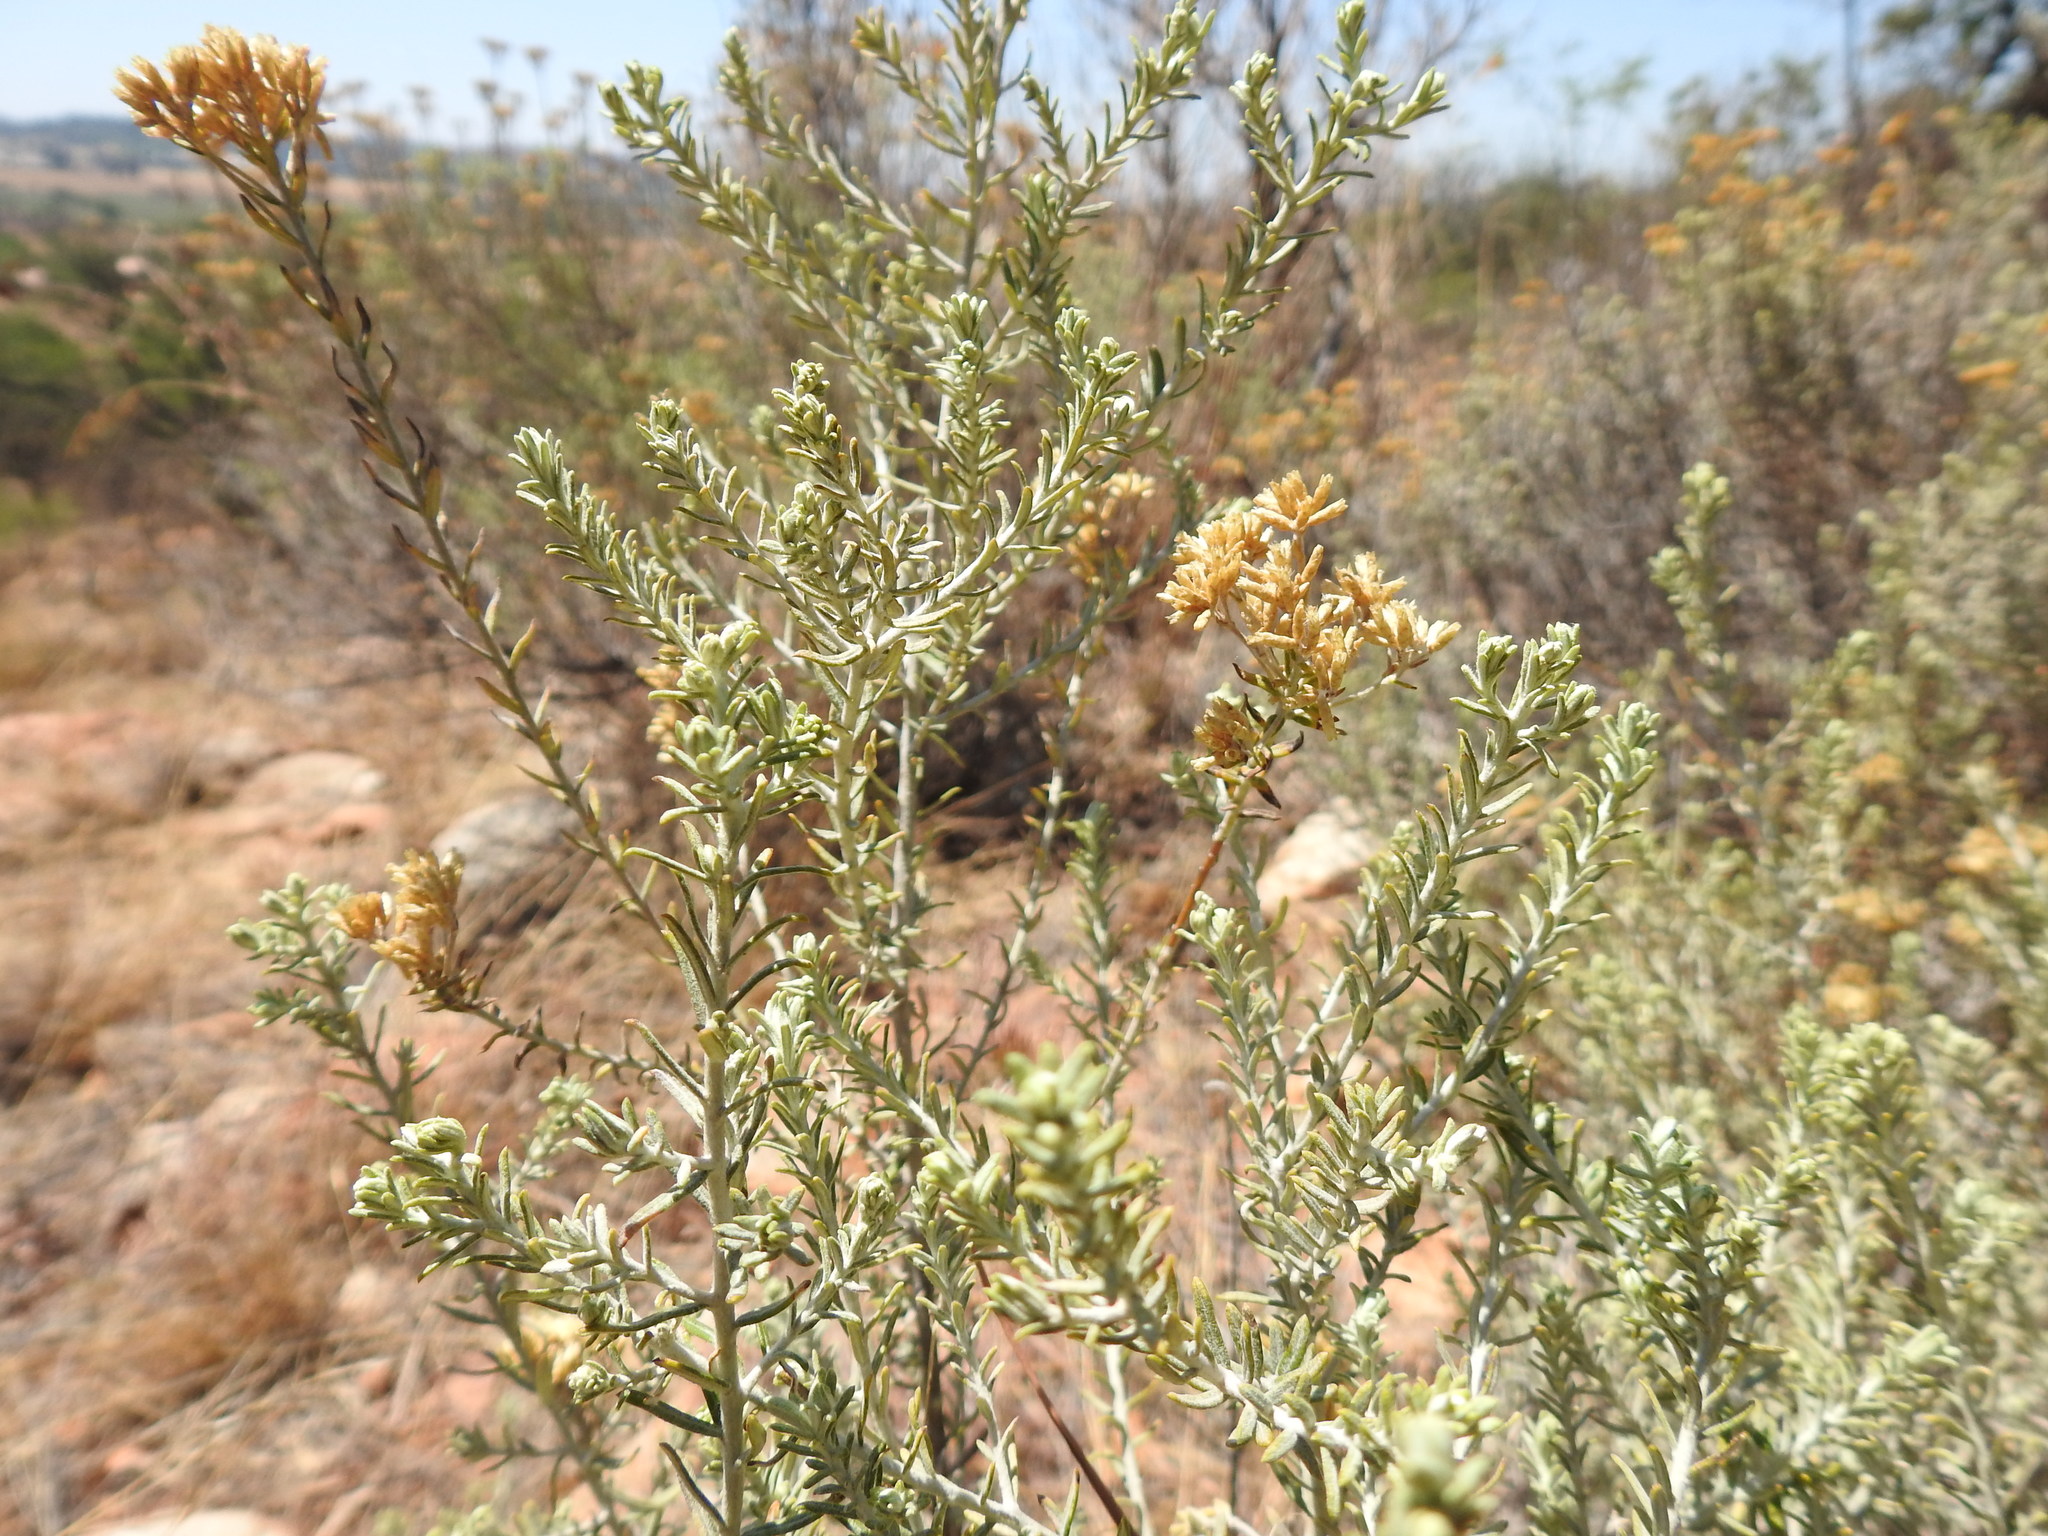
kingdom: Plantae
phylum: Tracheophyta
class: Magnoliopsida
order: Asterales
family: Asteraceae
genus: Helichrysum
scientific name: Helichrysum kraussii
